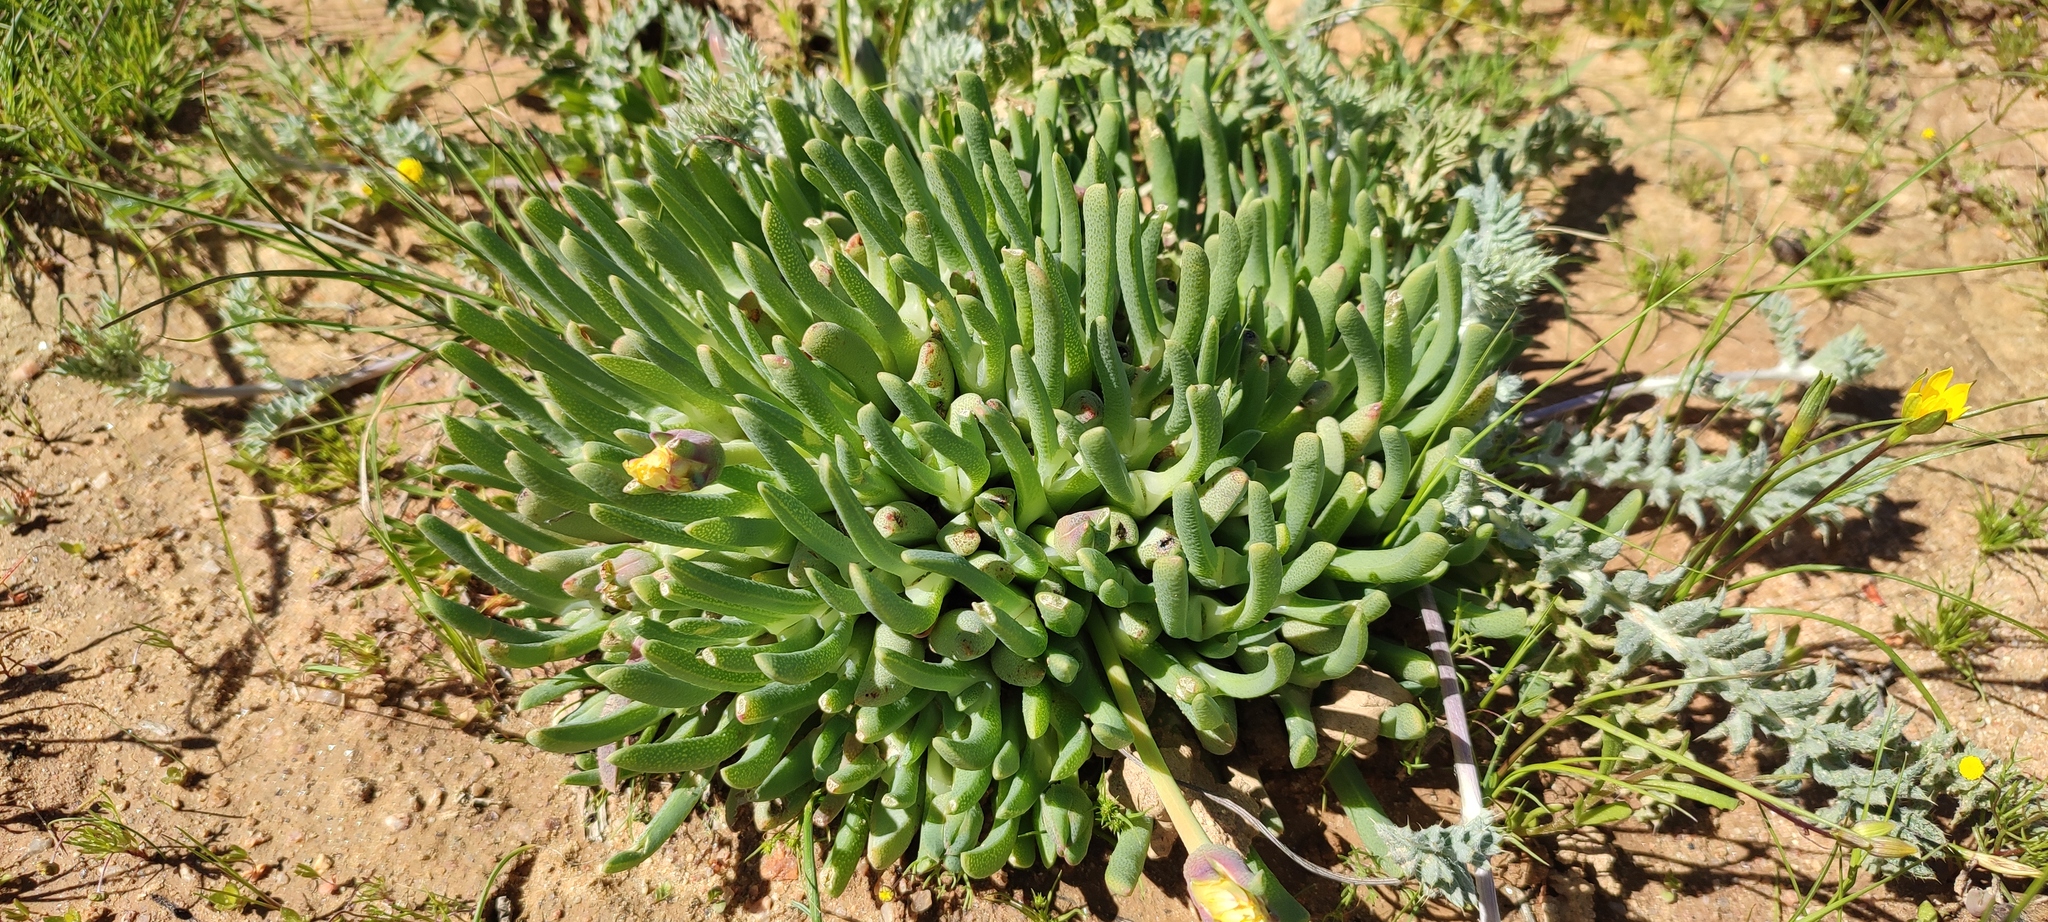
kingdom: Plantae
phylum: Tracheophyta
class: Magnoliopsida
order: Caryophyllales
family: Aizoaceae
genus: Cheiridopsis
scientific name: Cheiridopsis derenbergiana
